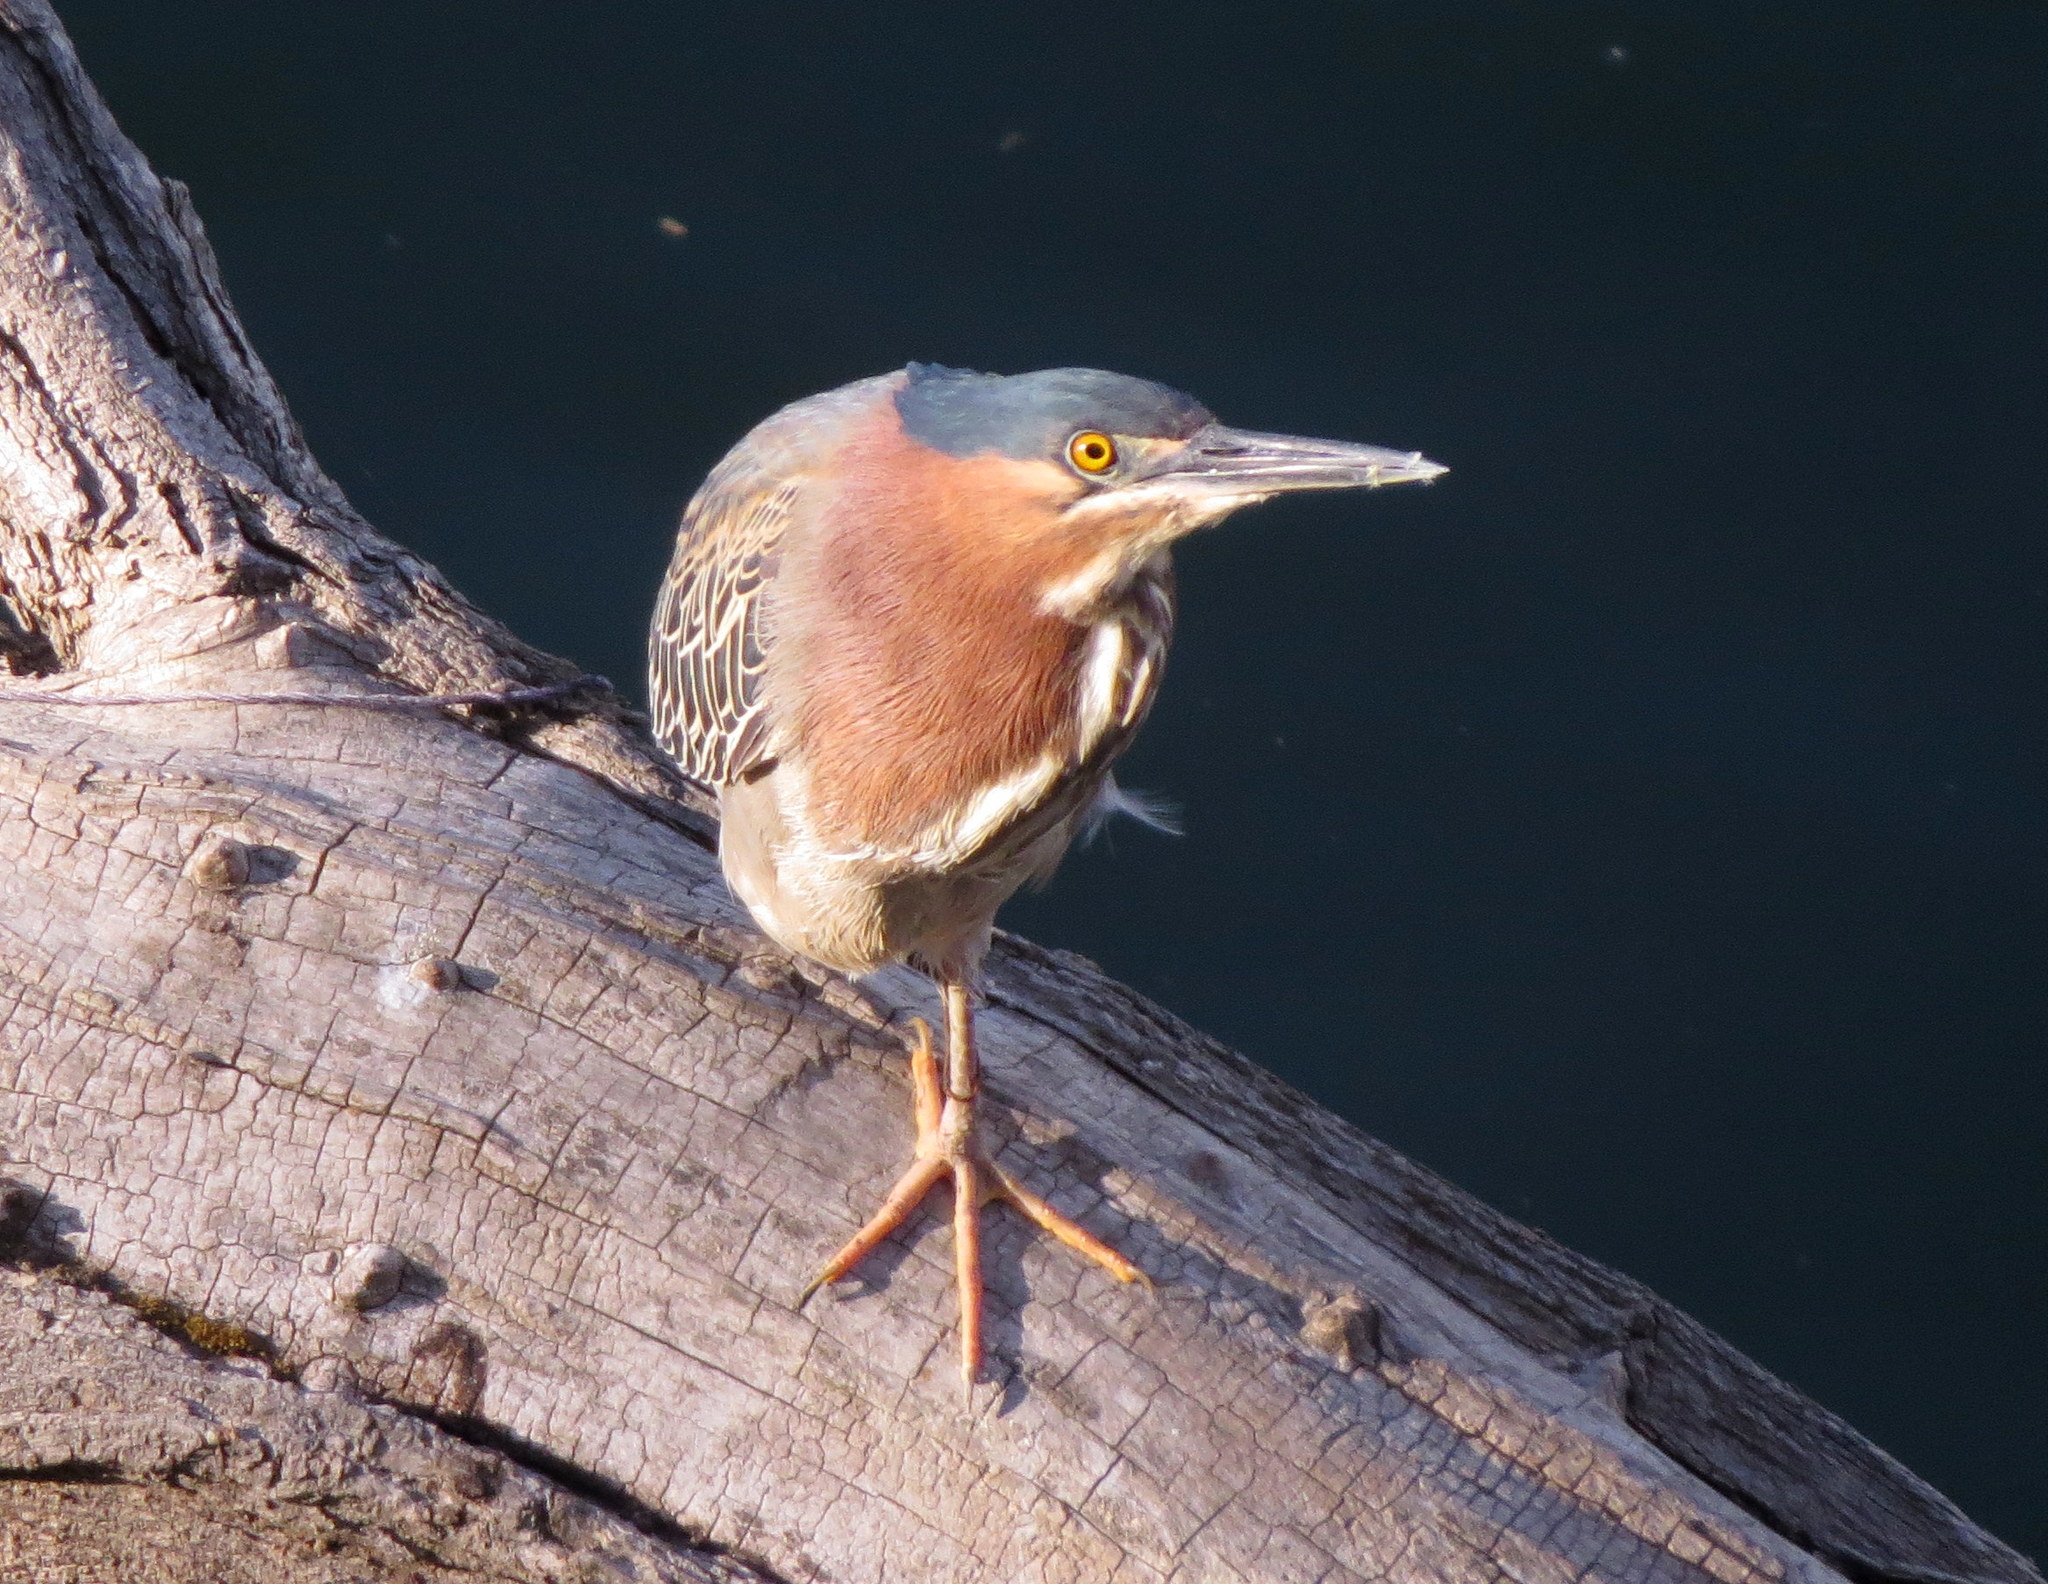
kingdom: Animalia
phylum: Chordata
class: Aves
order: Pelecaniformes
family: Ardeidae
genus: Butorides
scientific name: Butorides virescens
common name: Green heron
